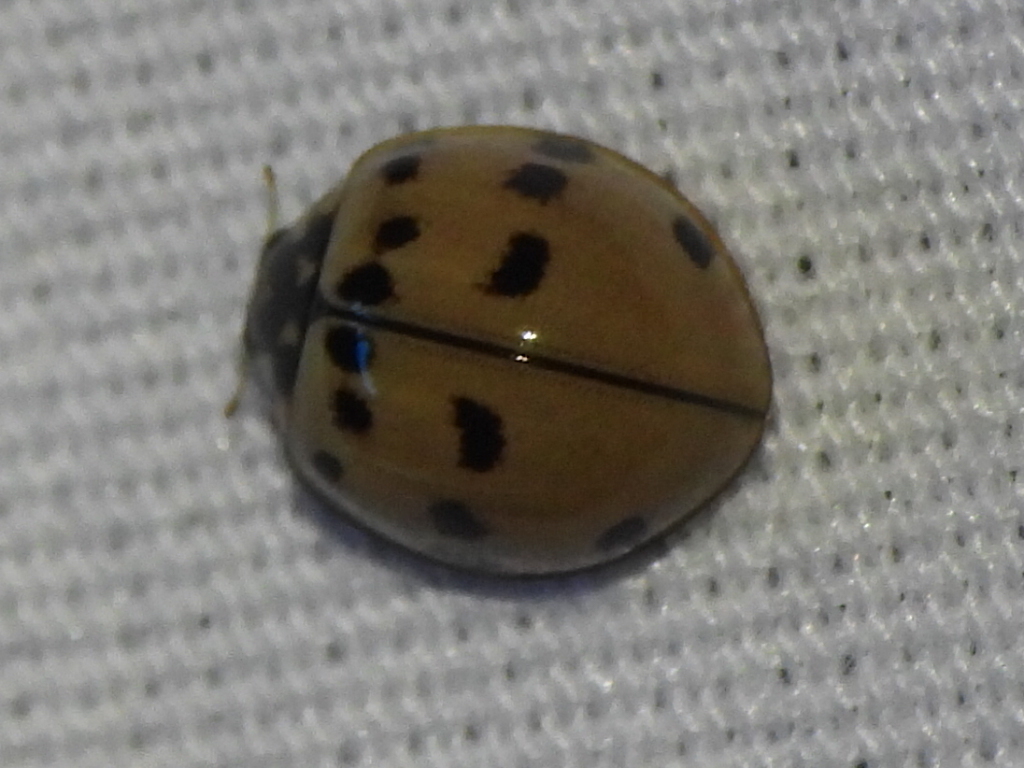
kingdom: Animalia
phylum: Arthropoda
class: Insecta
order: Coleoptera
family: Coccinellidae
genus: Olla
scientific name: Olla v-nigrum
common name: Ashy gray lady beetle
